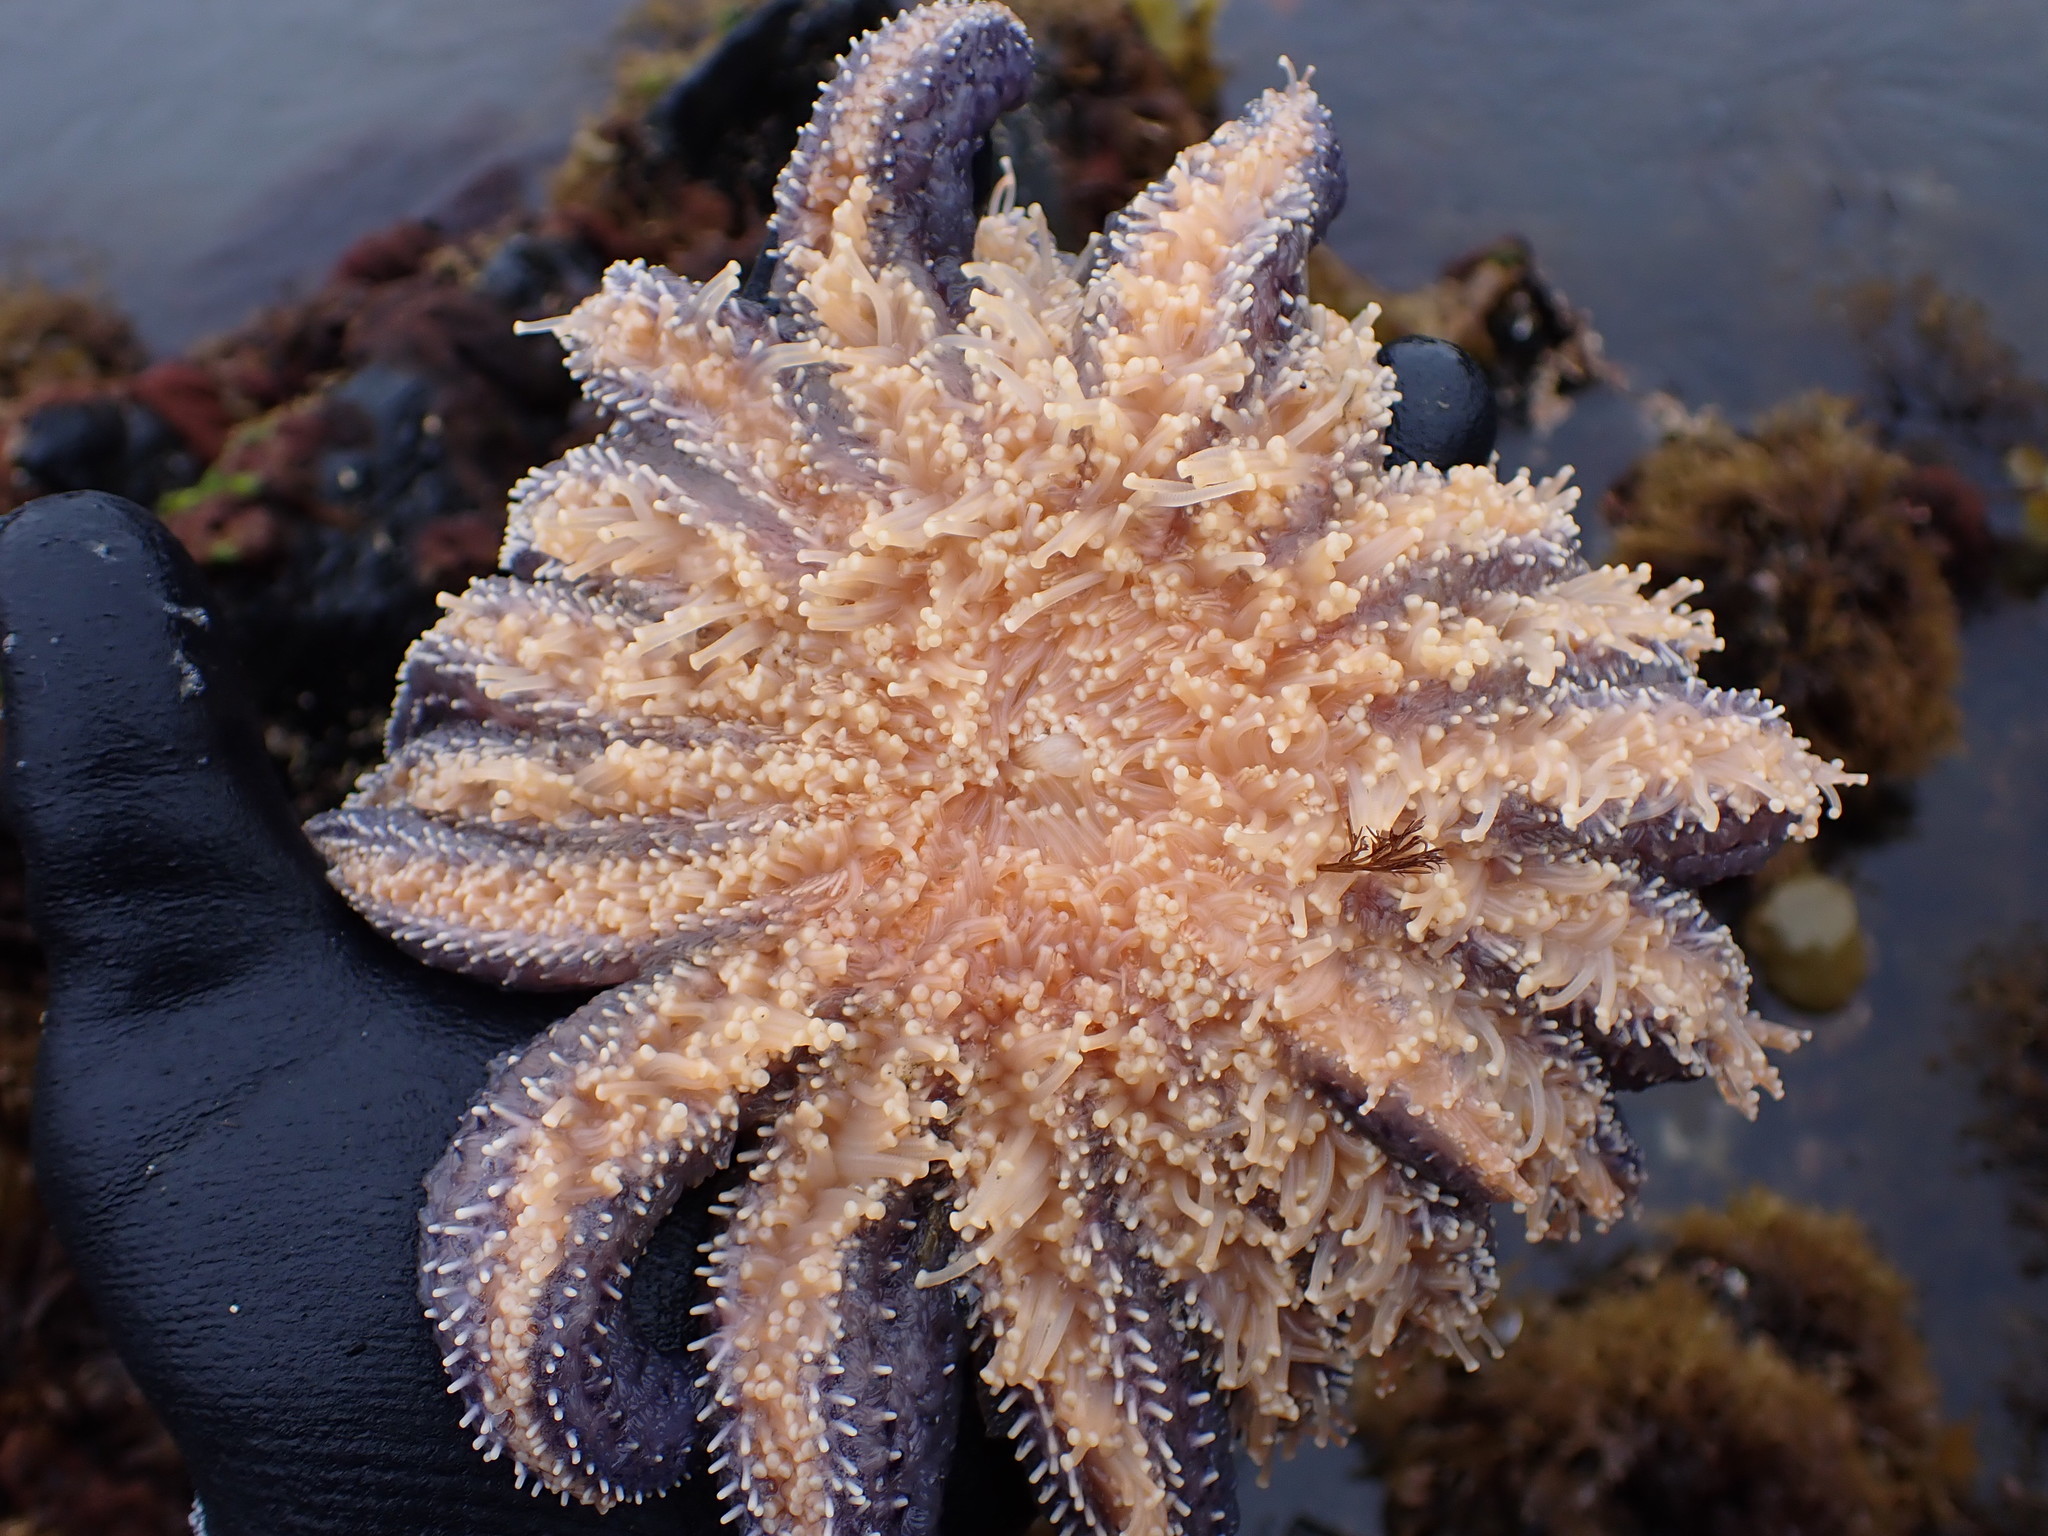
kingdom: Animalia
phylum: Echinodermata
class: Asteroidea
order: Forcipulatida
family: Asteriidae
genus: Pycnopodia
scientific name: Pycnopodia helianthoides
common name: Rag mop
